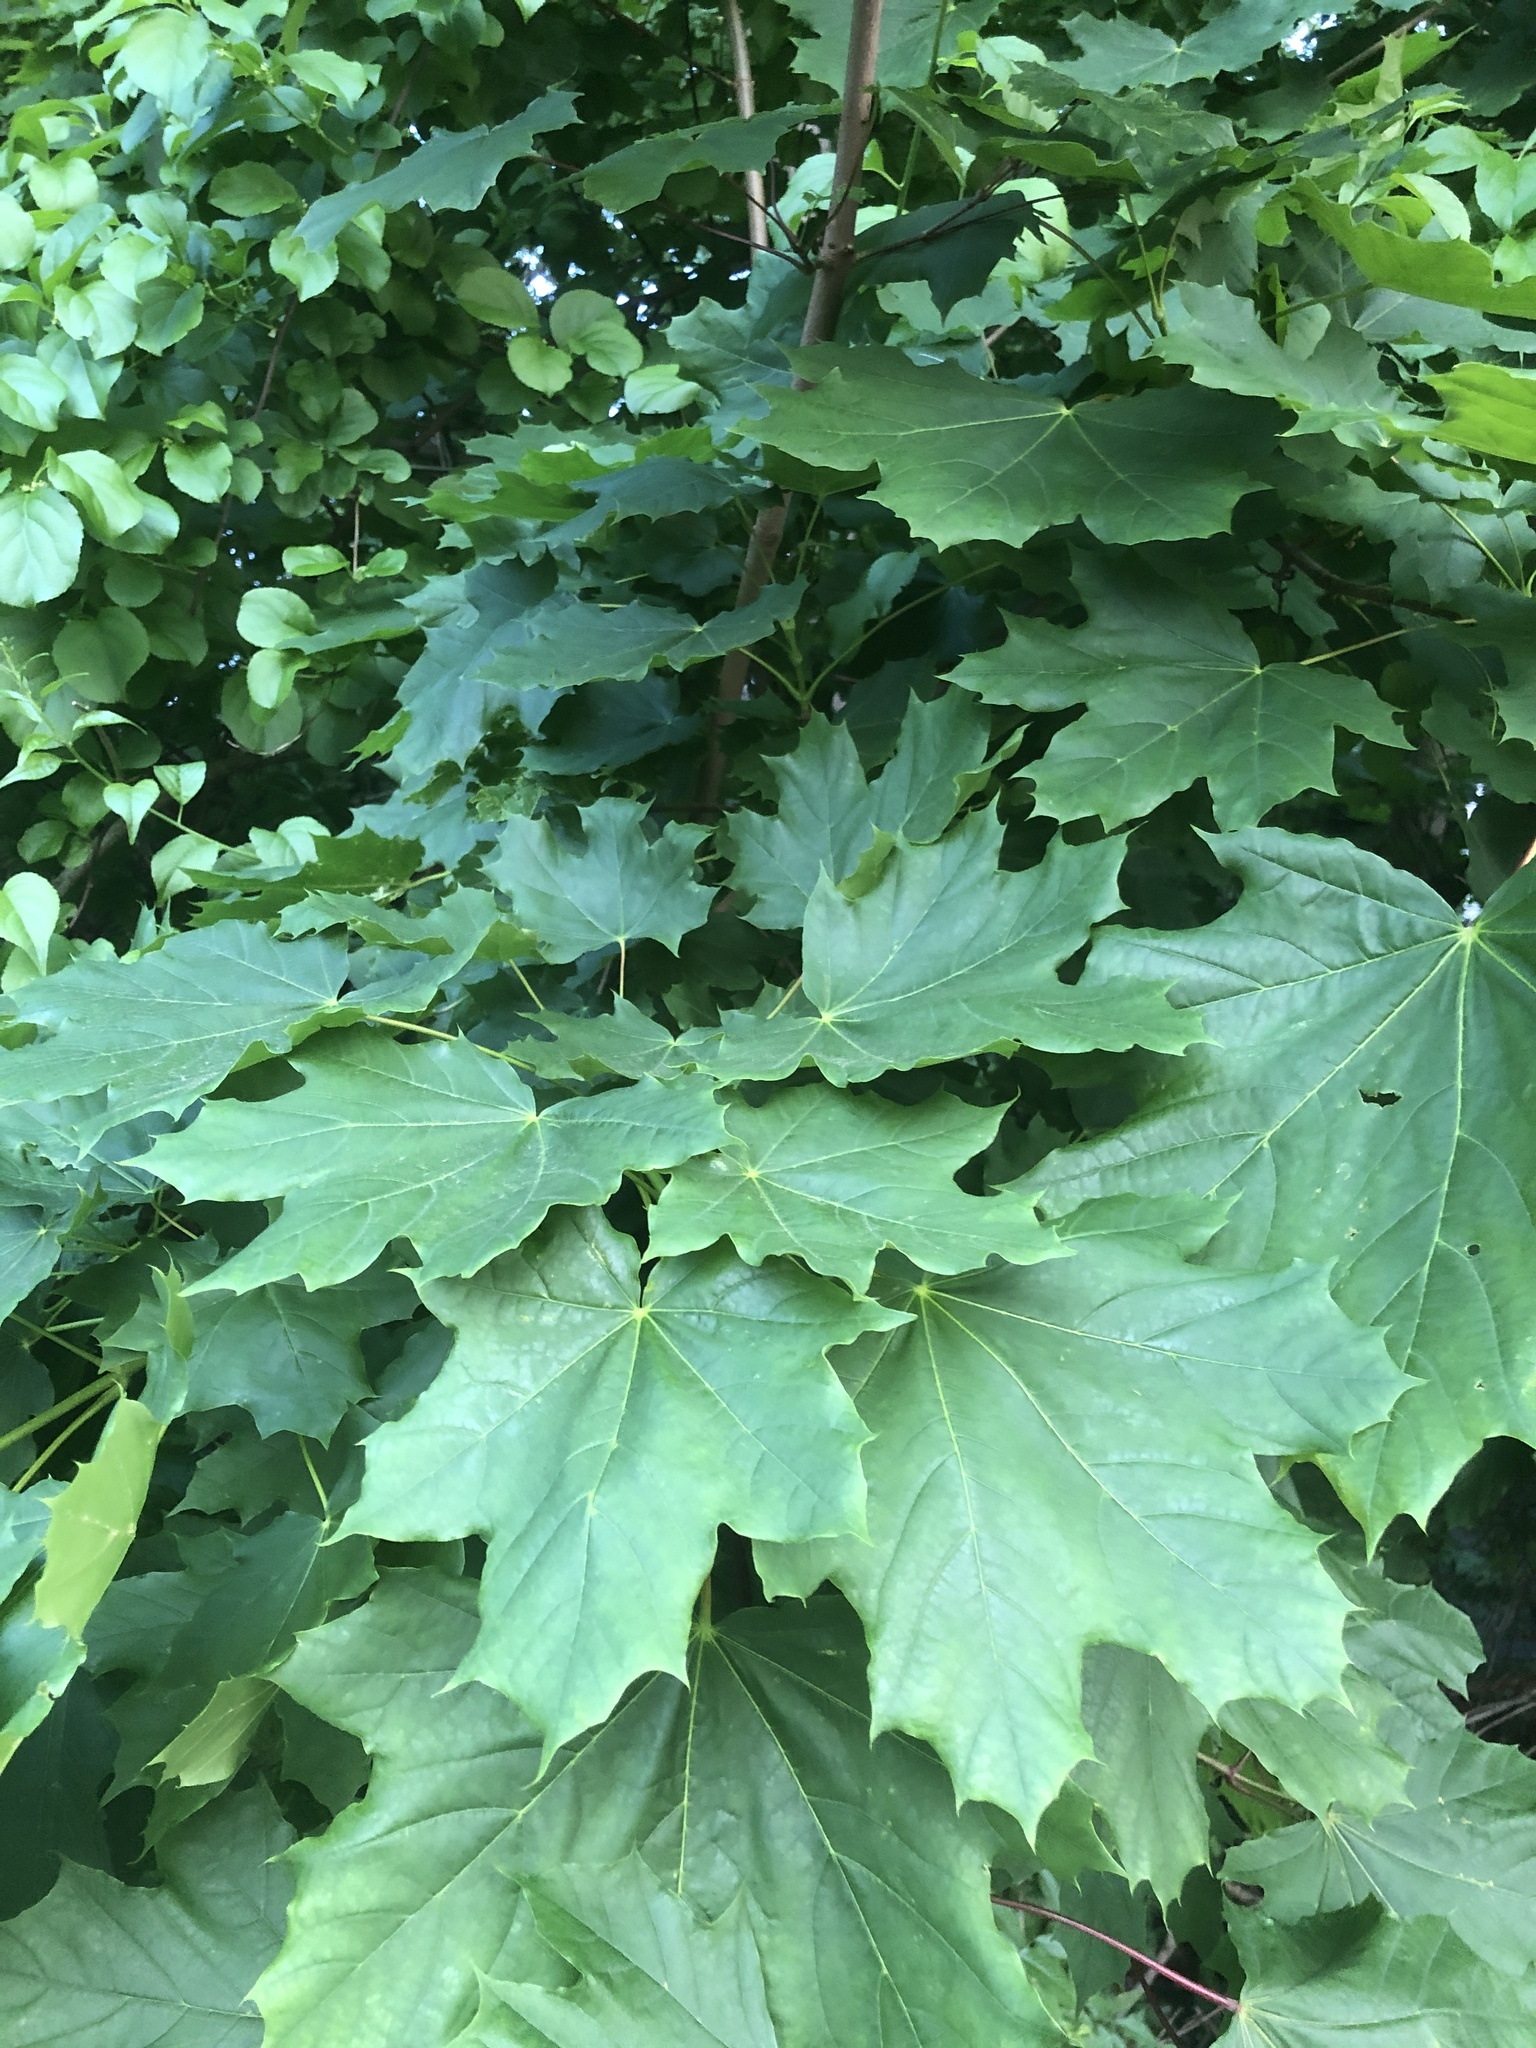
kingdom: Plantae
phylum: Tracheophyta
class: Magnoliopsida
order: Sapindales
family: Sapindaceae
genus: Acer
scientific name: Acer platanoides
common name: Norway maple
